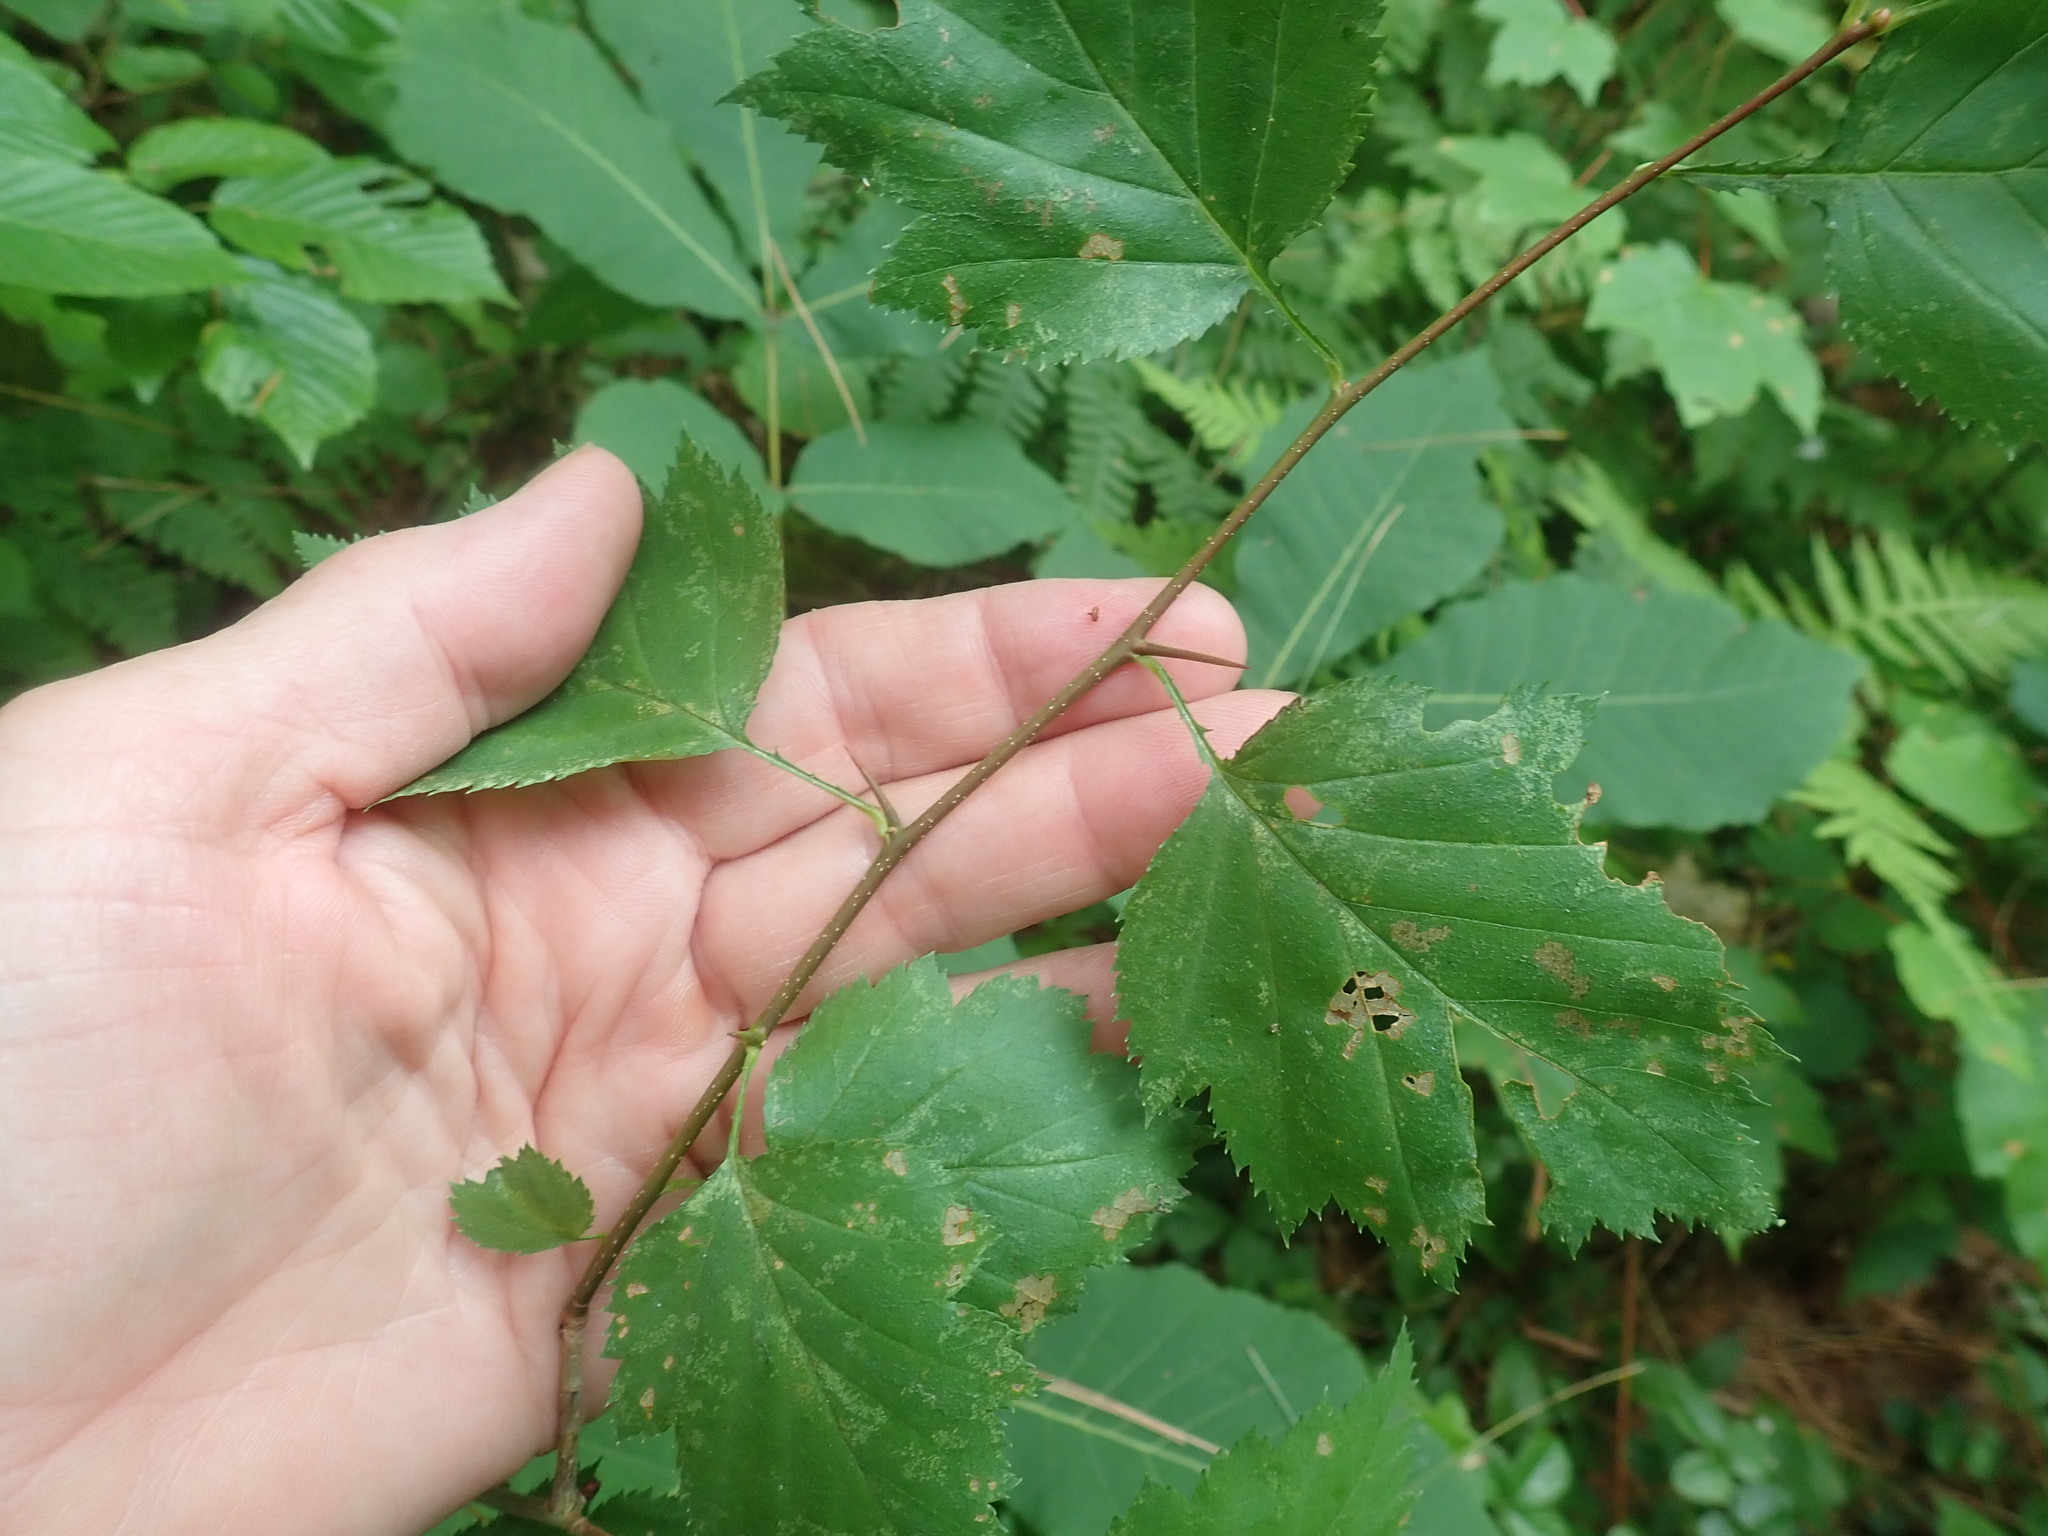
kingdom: Plantae
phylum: Tracheophyta
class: Magnoliopsida
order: Rosales
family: Rosaceae
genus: Crataegus
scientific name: Crataegus
